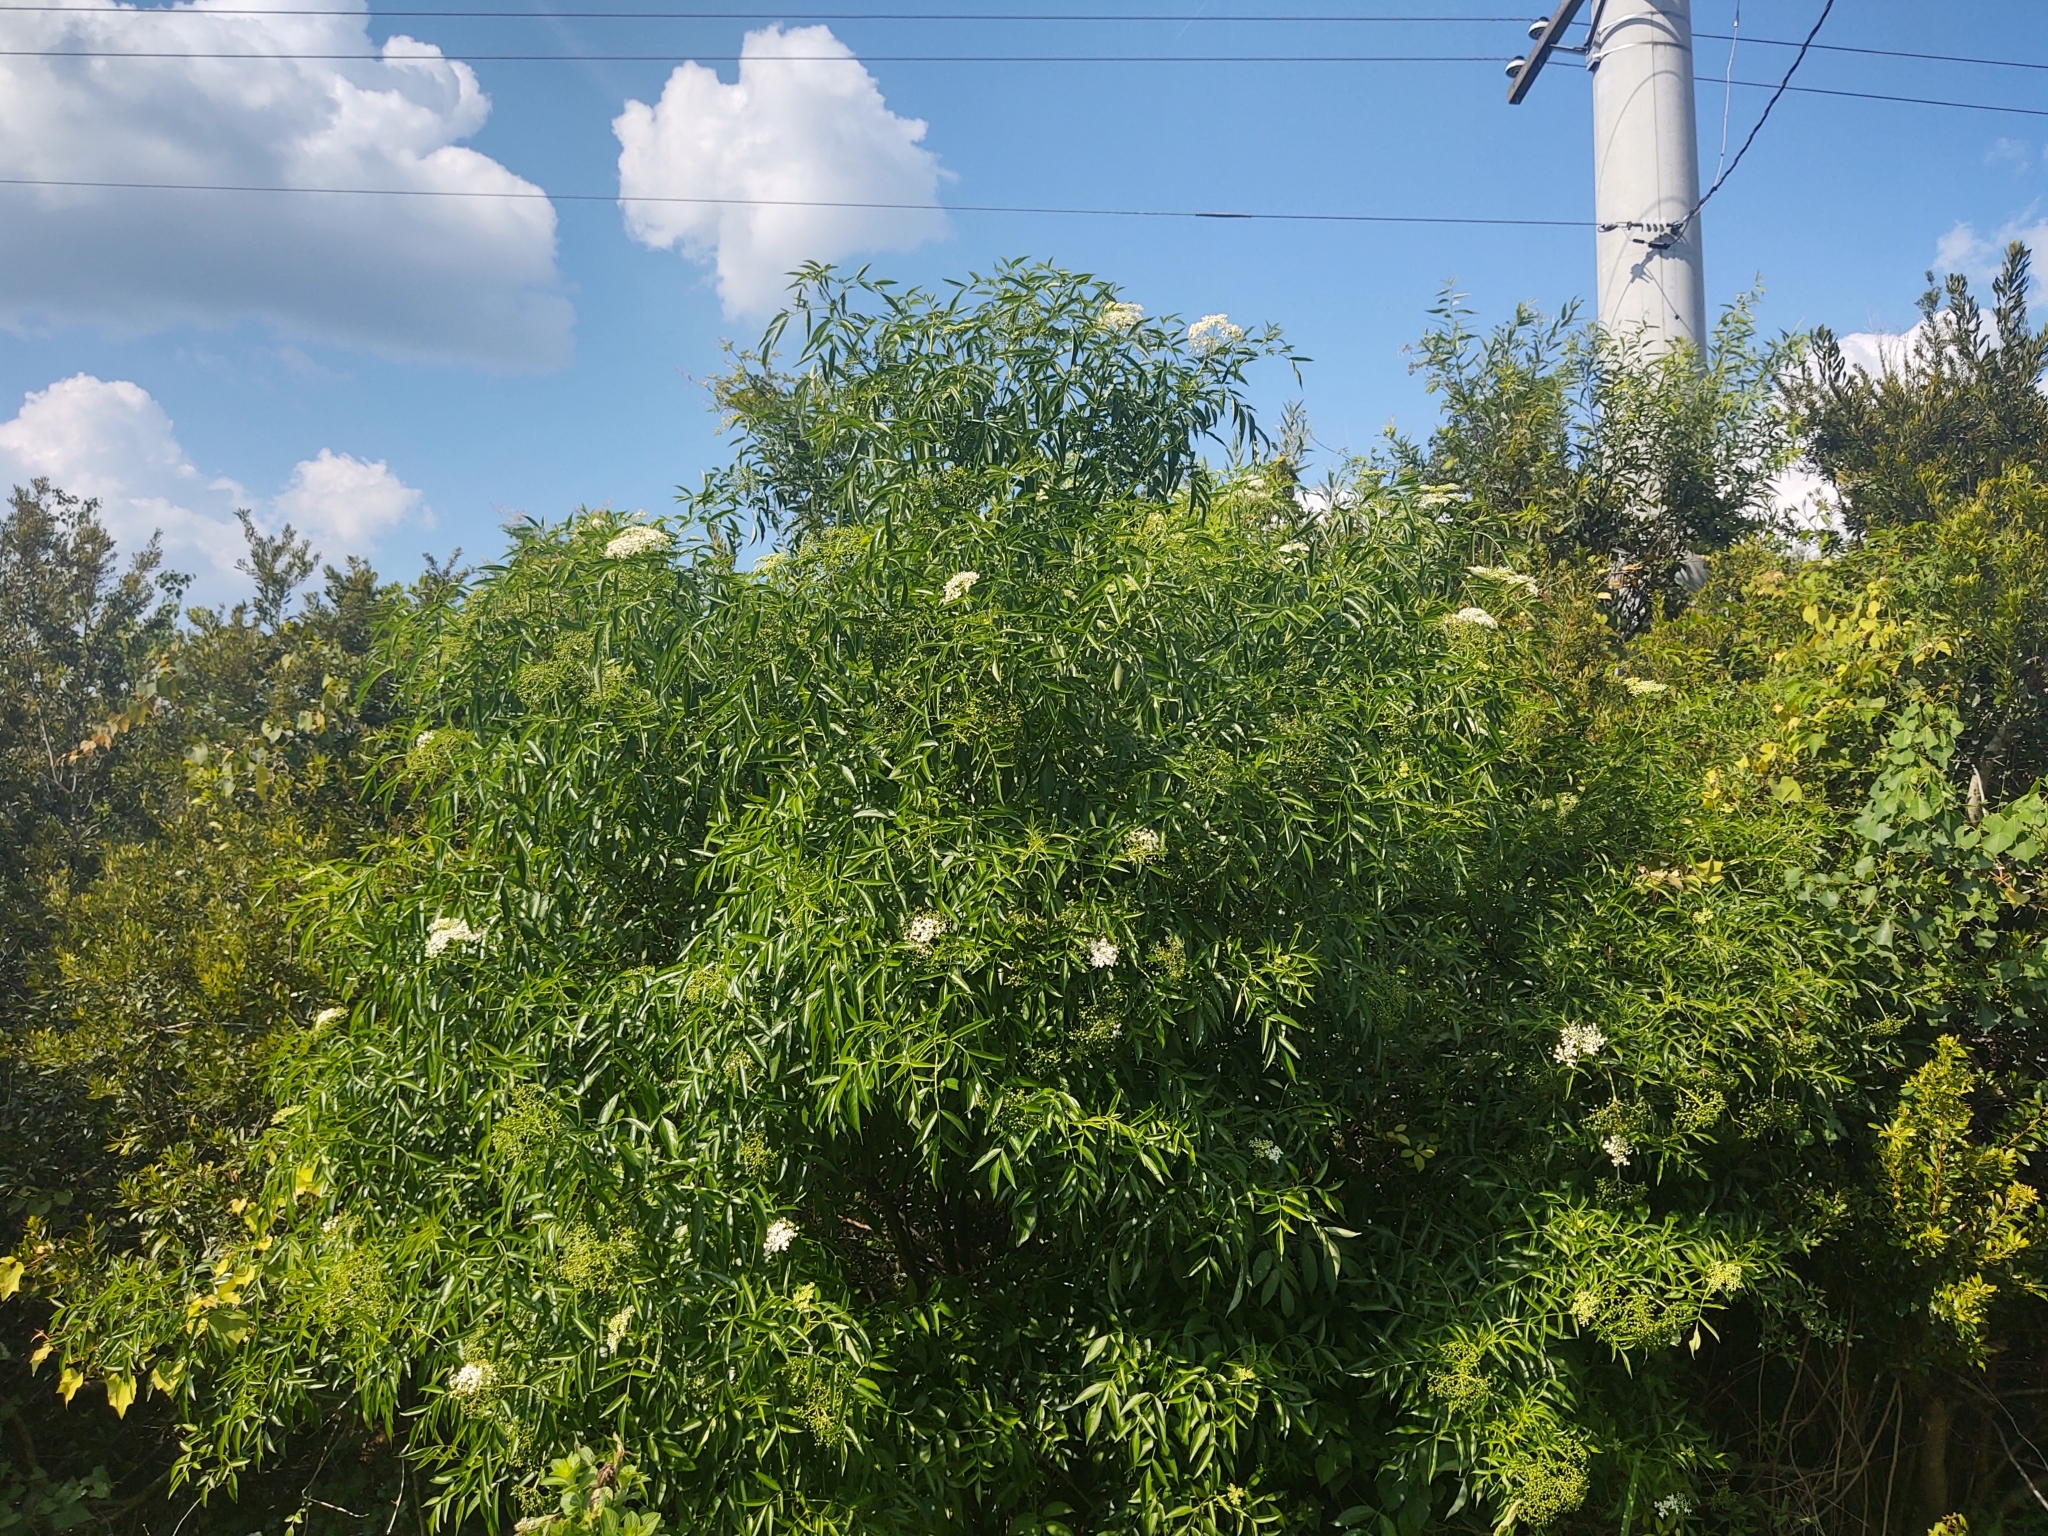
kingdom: Plantae
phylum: Tracheophyta
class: Magnoliopsida
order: Dipsacales
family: Viburnaceae
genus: Sambucus
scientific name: Sambucus canadensis
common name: American elder
